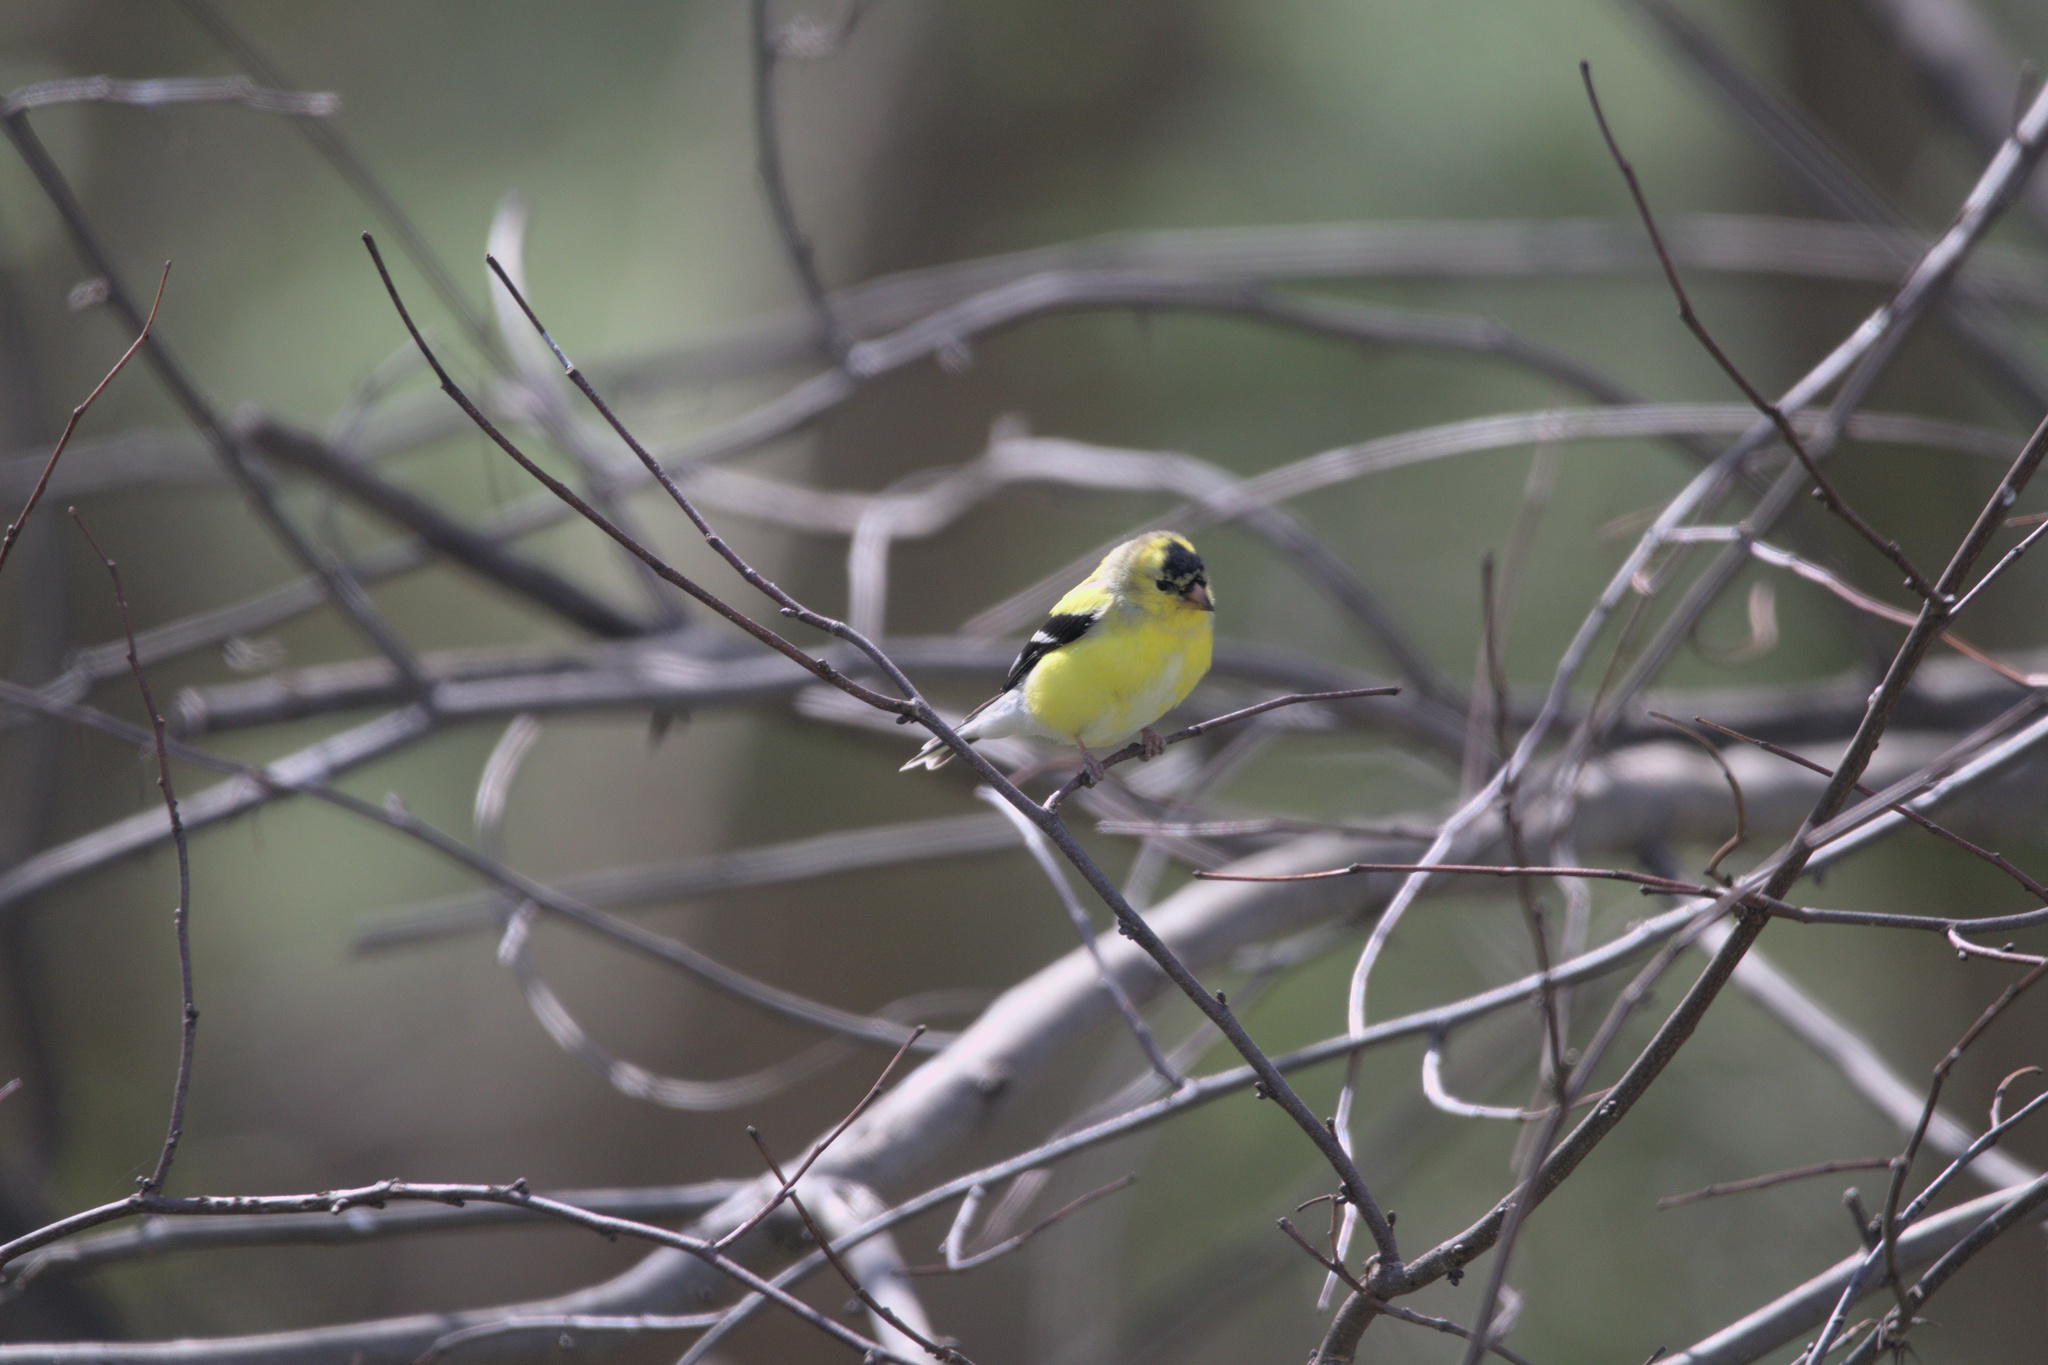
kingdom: Animalia
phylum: Chordata
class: Aves
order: Passeriformes
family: Fringillidae
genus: Spinus
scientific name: Spinus tristis
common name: American goldfinch
